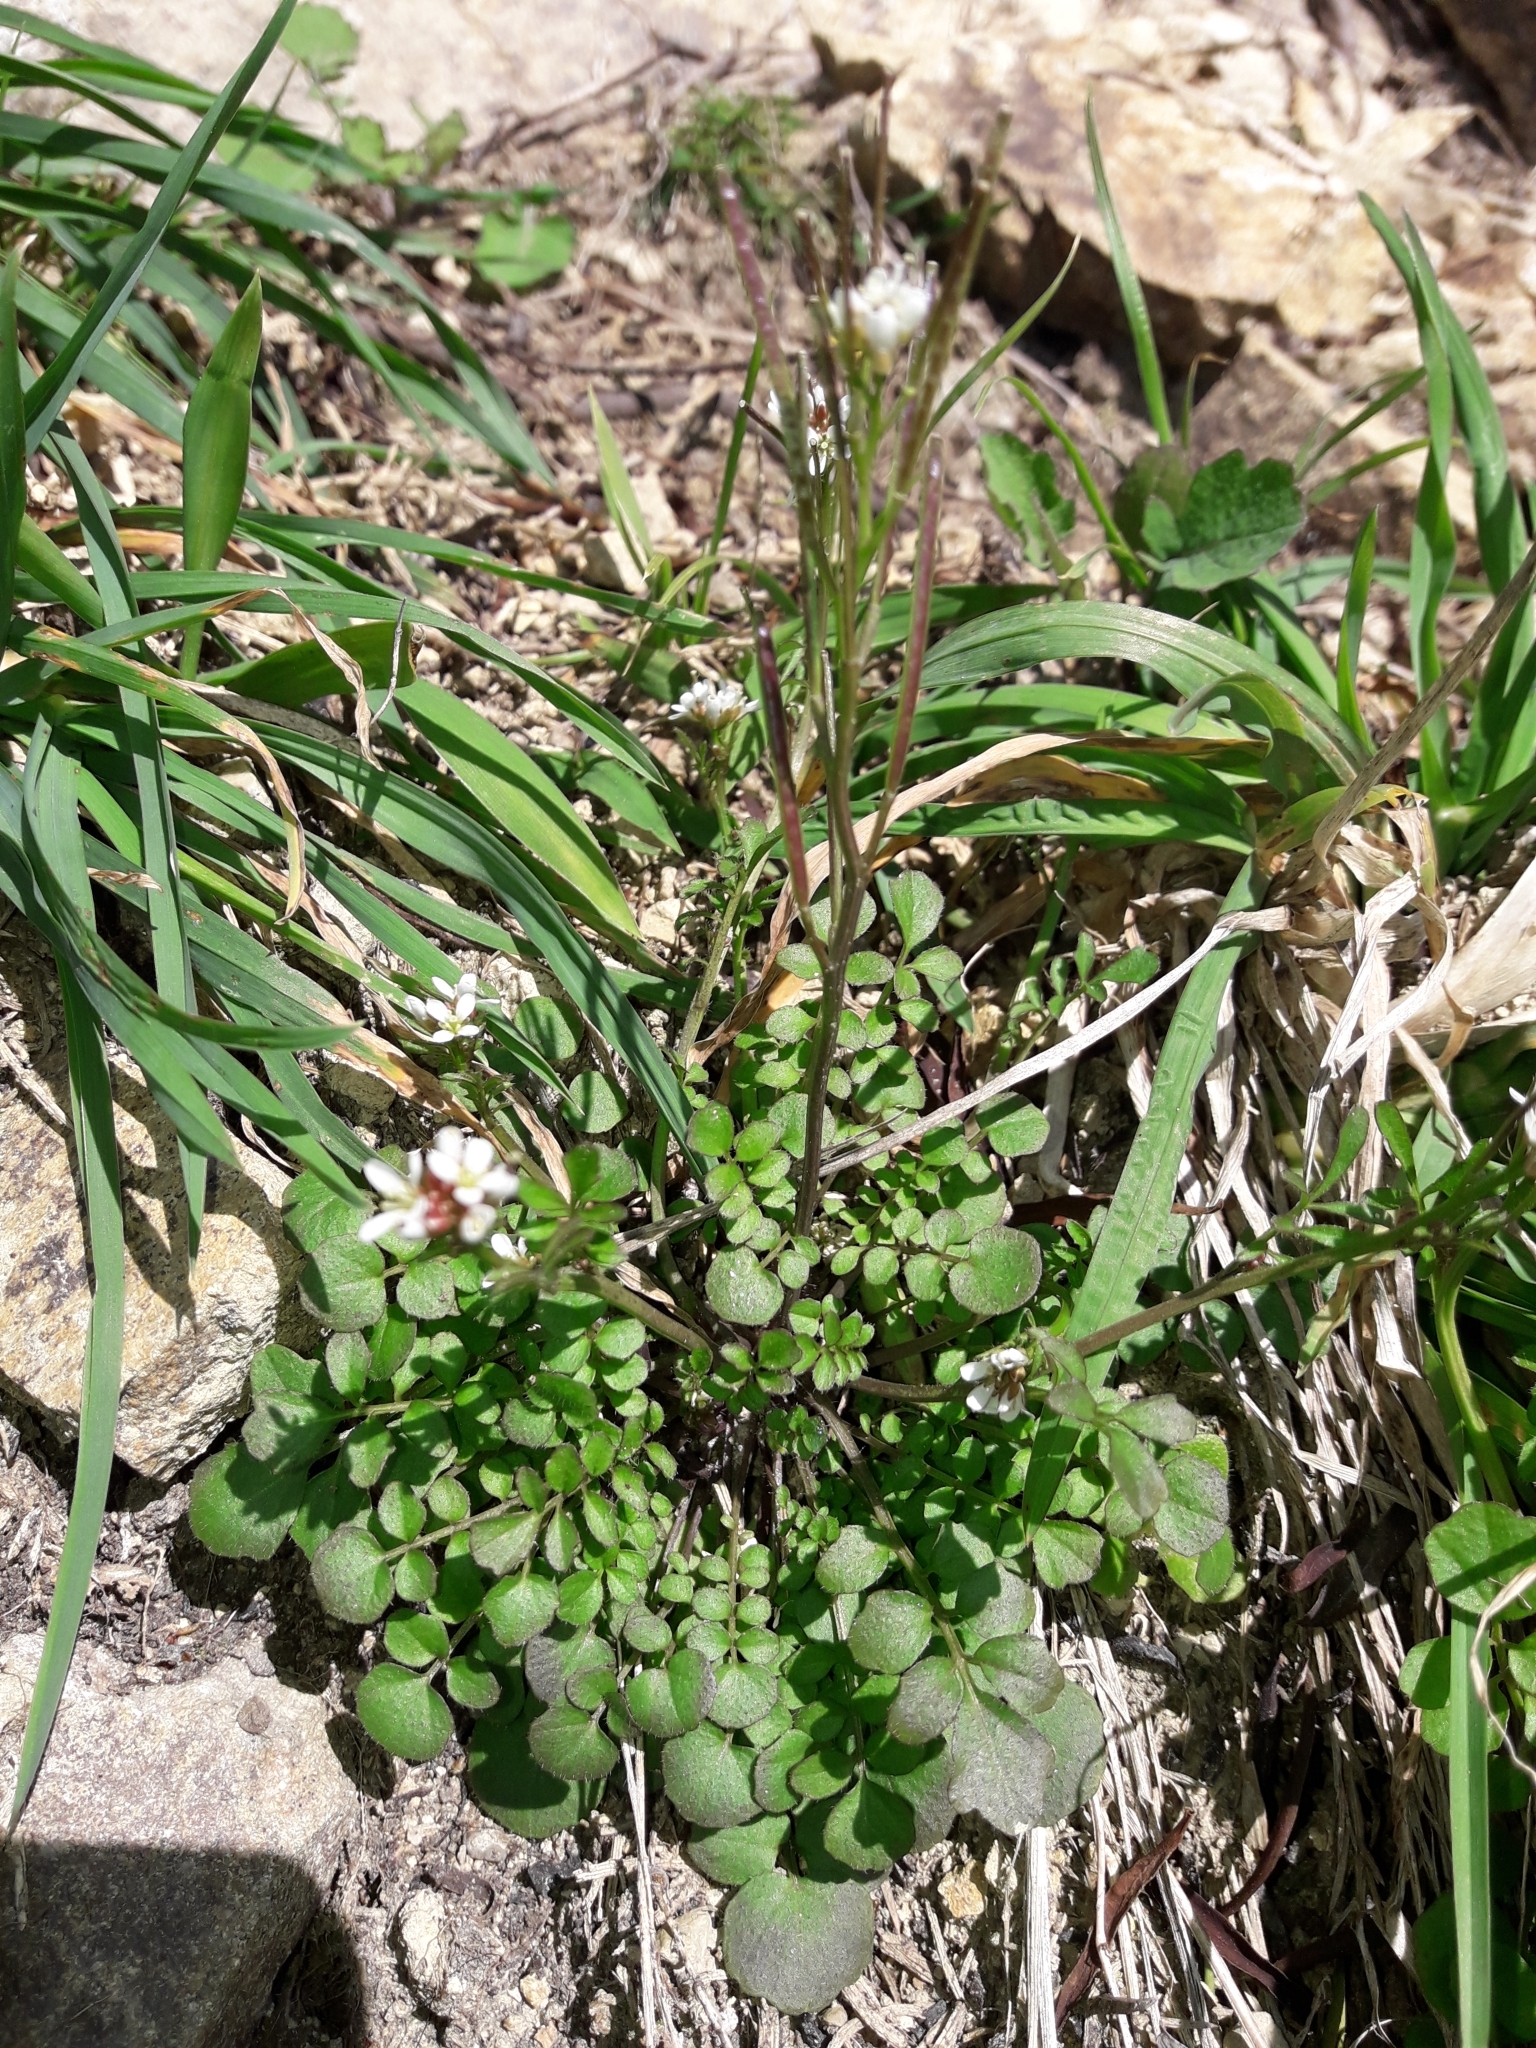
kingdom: Plantae
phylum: Tracheophyta
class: Magnoliopsida
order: Brassicales
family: Brassicaceae
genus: Cardamine
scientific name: Cardamine hirsuta
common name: Hairy bittercress
